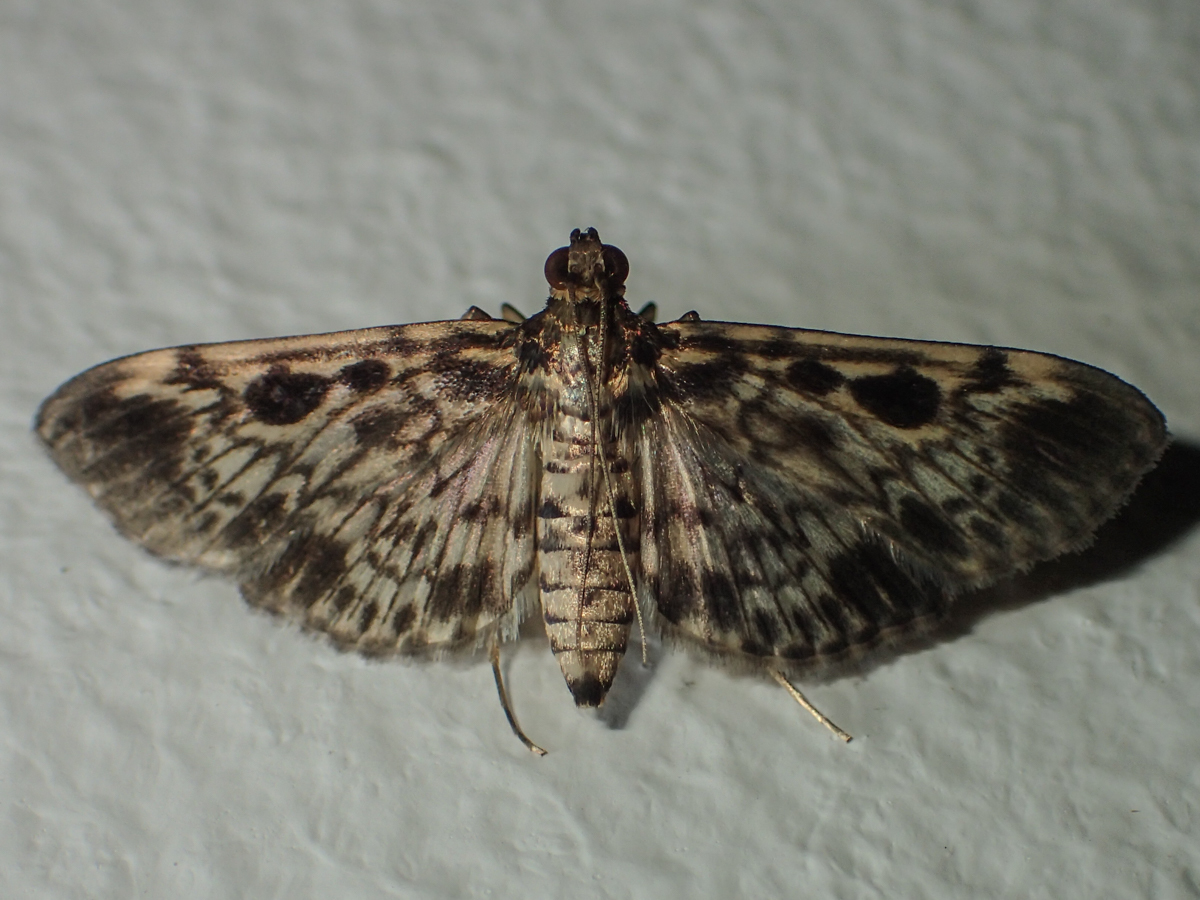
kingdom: Animalia
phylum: Arthropoda
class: Insecta
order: Lepidoptera
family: Crambidae
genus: Rhimphaliodes
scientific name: Rhimphaliodes macrostigma
